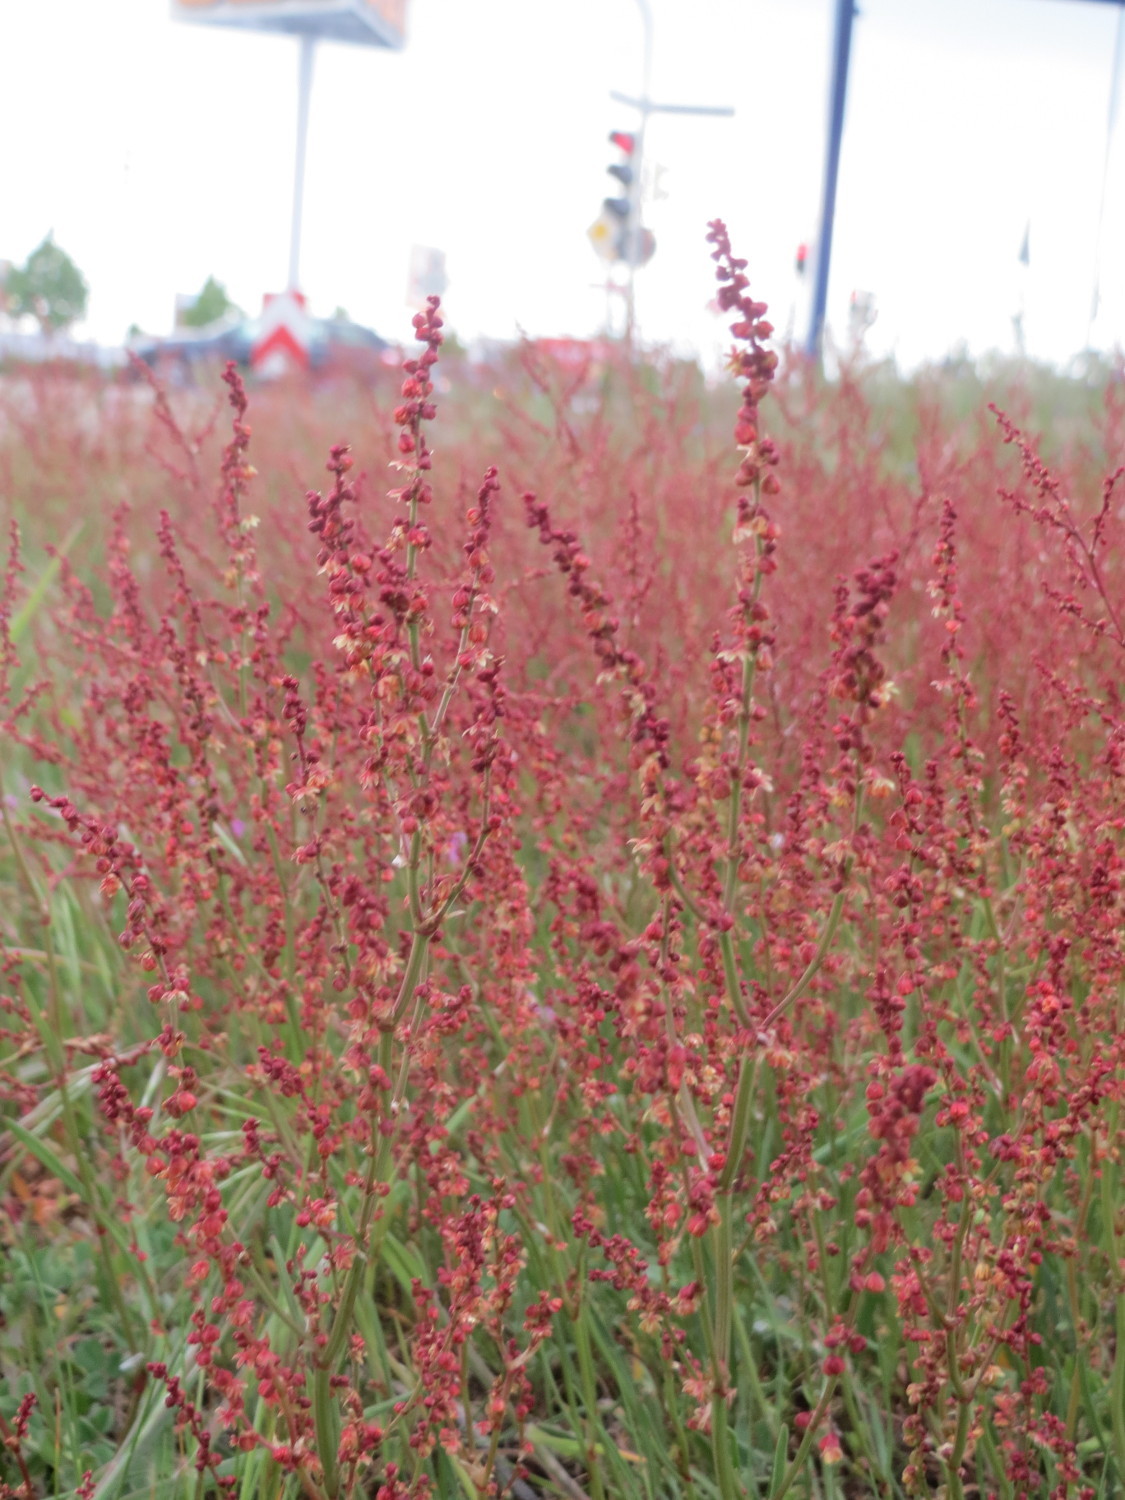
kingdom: Plantae
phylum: Tracheophyta
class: Magnoliopsida
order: Caryophyllales
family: Polygonaceae
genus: Rumex
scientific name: Rumex acetosella
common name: Common sheep sorrel
